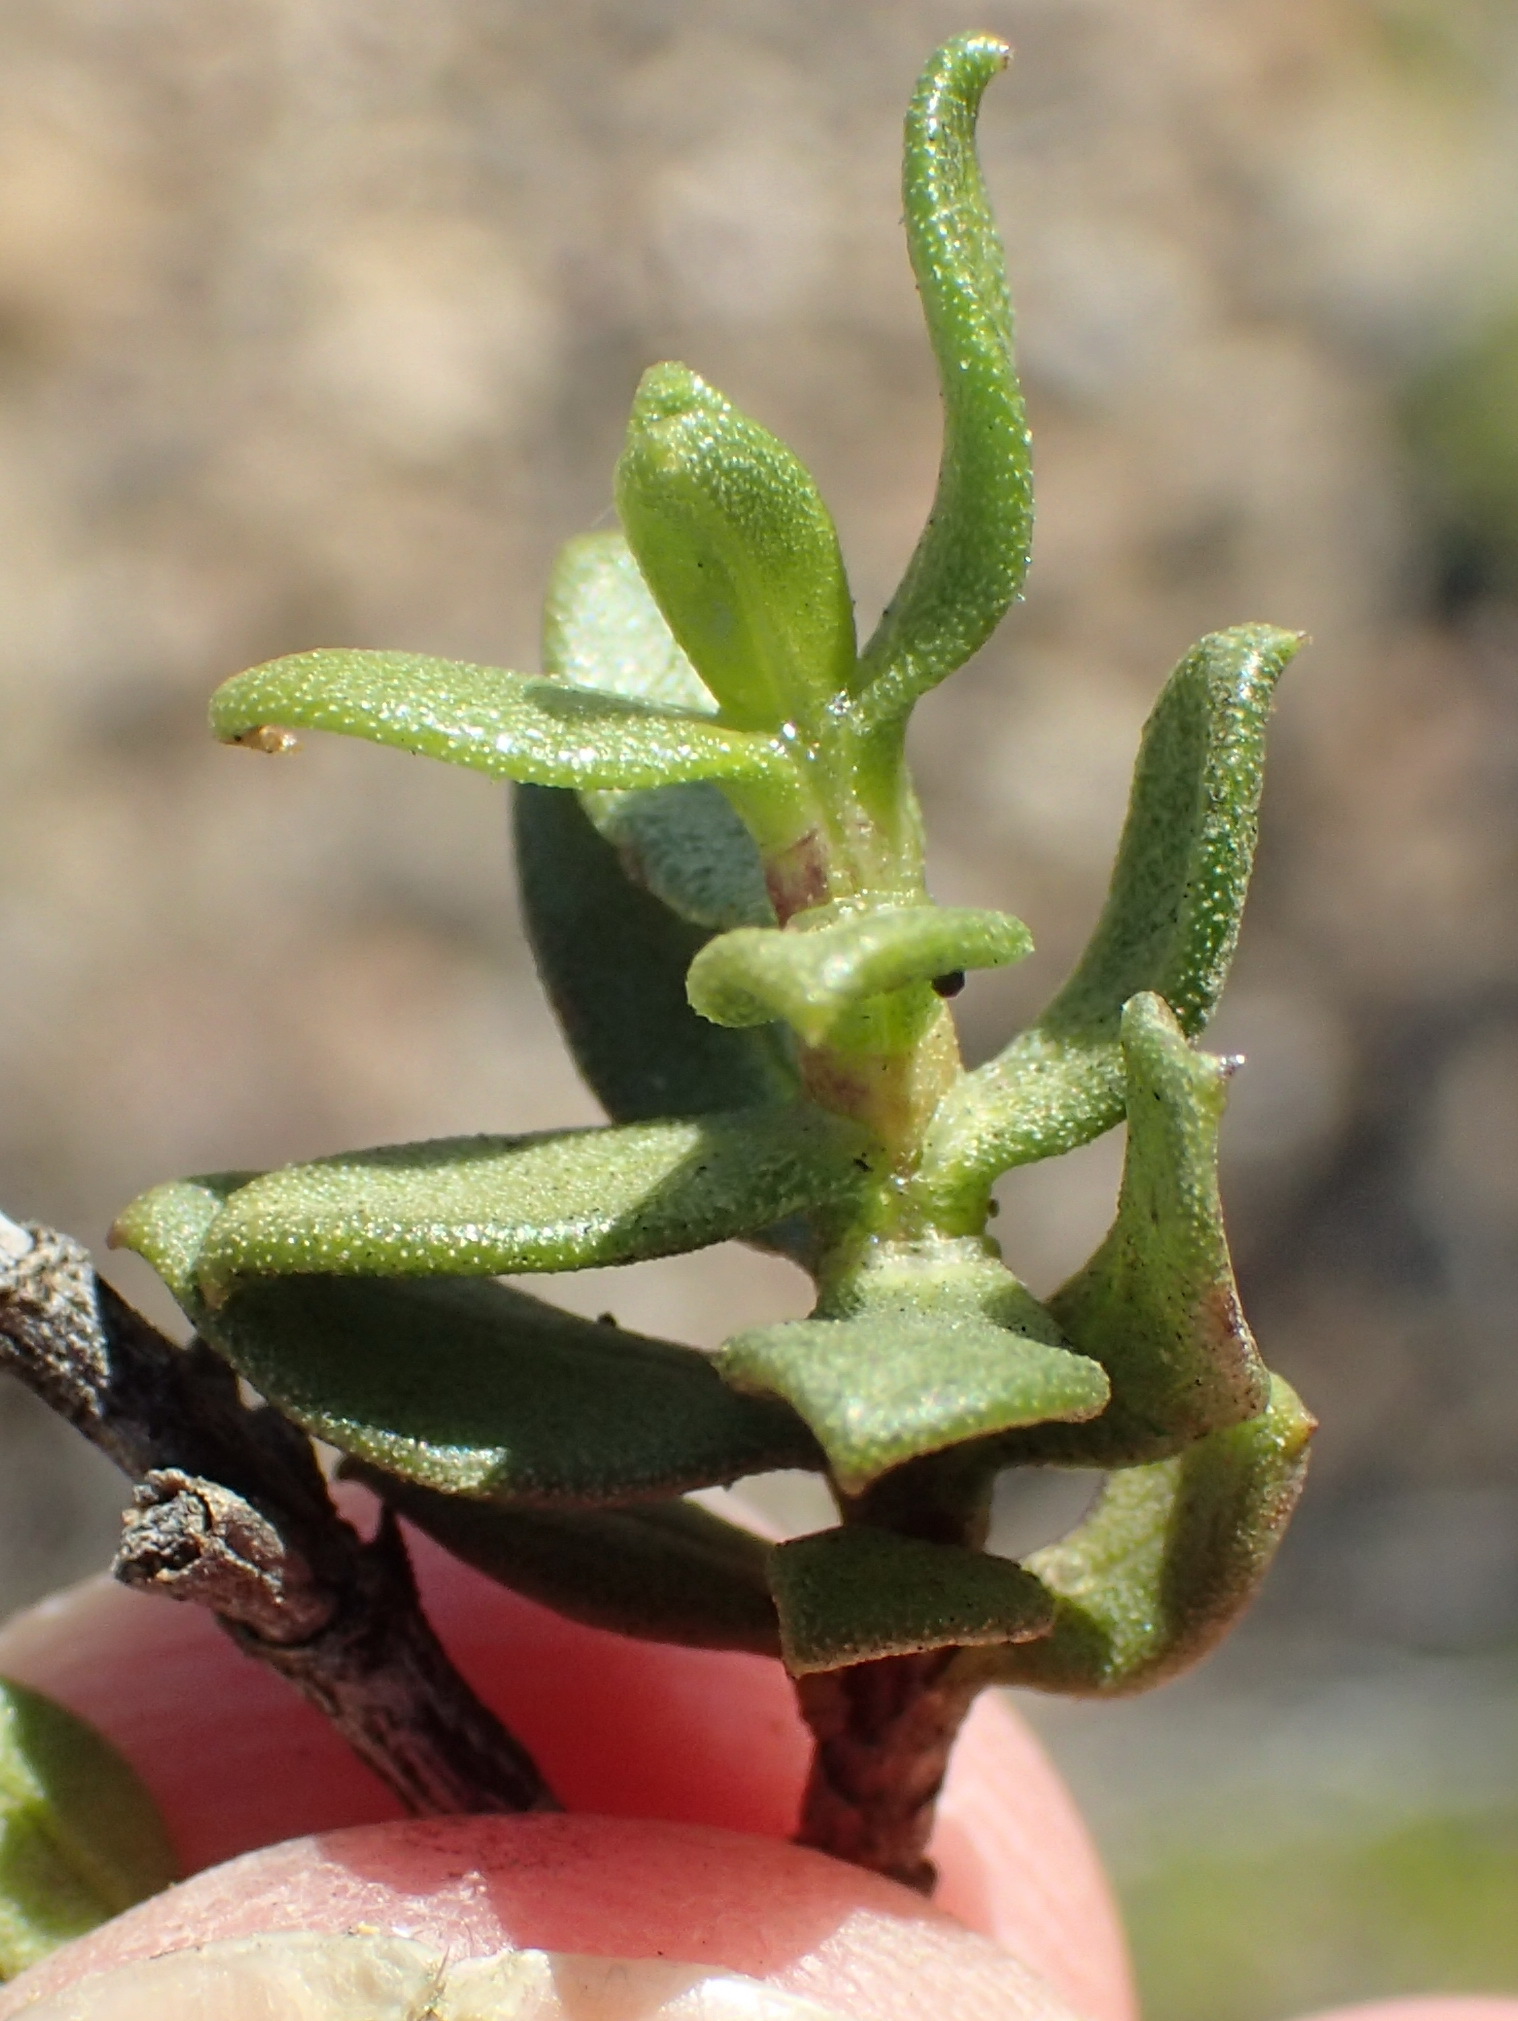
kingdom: Plantae
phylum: Tracheophyta
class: Magnoliopsida
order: Asterales
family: Asteraceae
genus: Pteronia
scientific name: Pteronia adenocarpa
